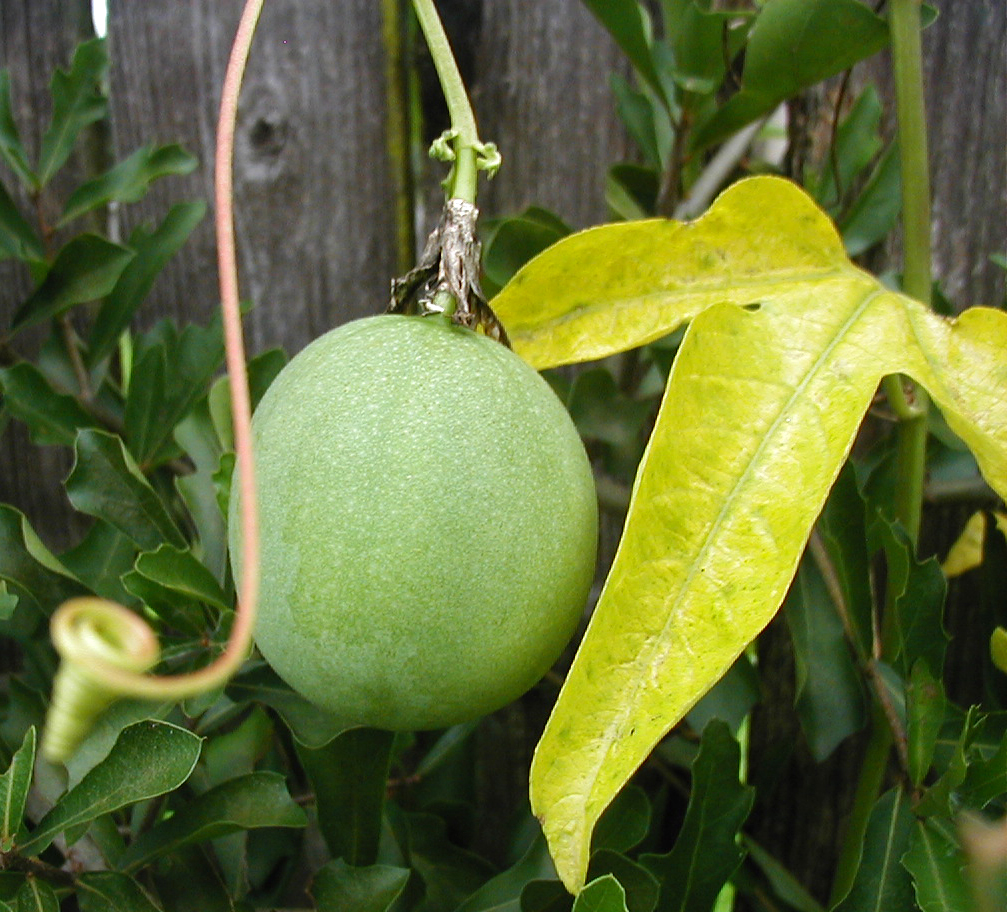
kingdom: Plantae
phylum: Tracheophyta
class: Magnoliopsida
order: Malpighiales
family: Passifloraceae
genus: Passiflora
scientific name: Passiflora incarnata
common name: Apricot-vine
